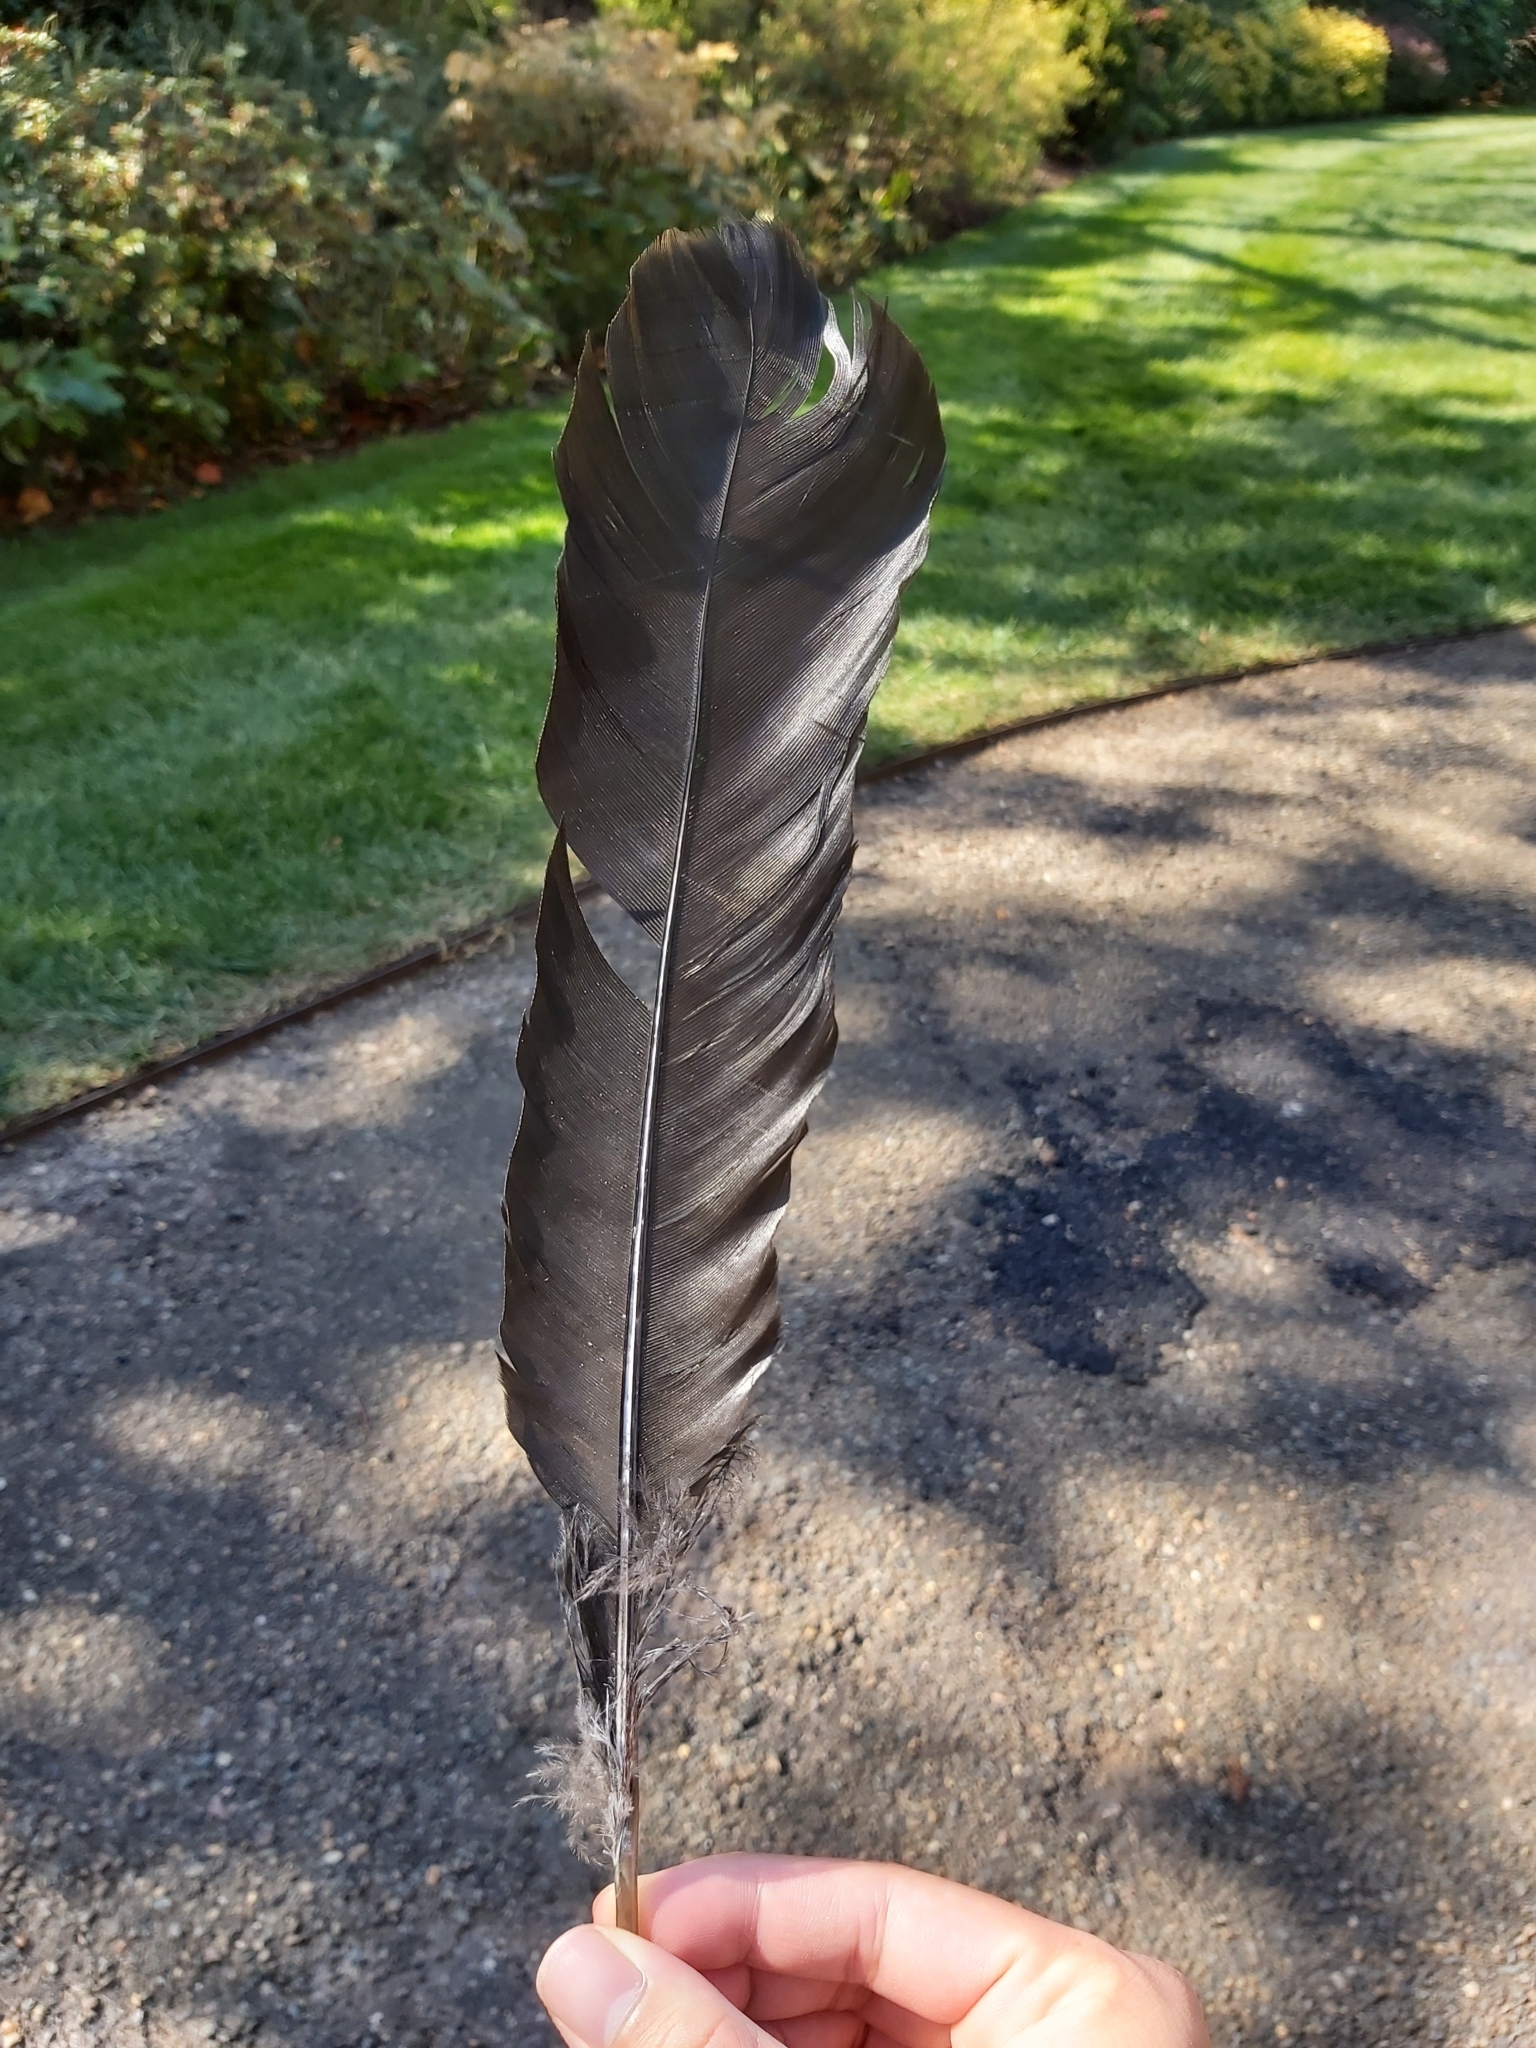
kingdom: Animalia
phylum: Chordata
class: Aves
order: Galliformes
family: Megapodiidae
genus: Alectura
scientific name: Alectura lathami
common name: Australian brushturkey
